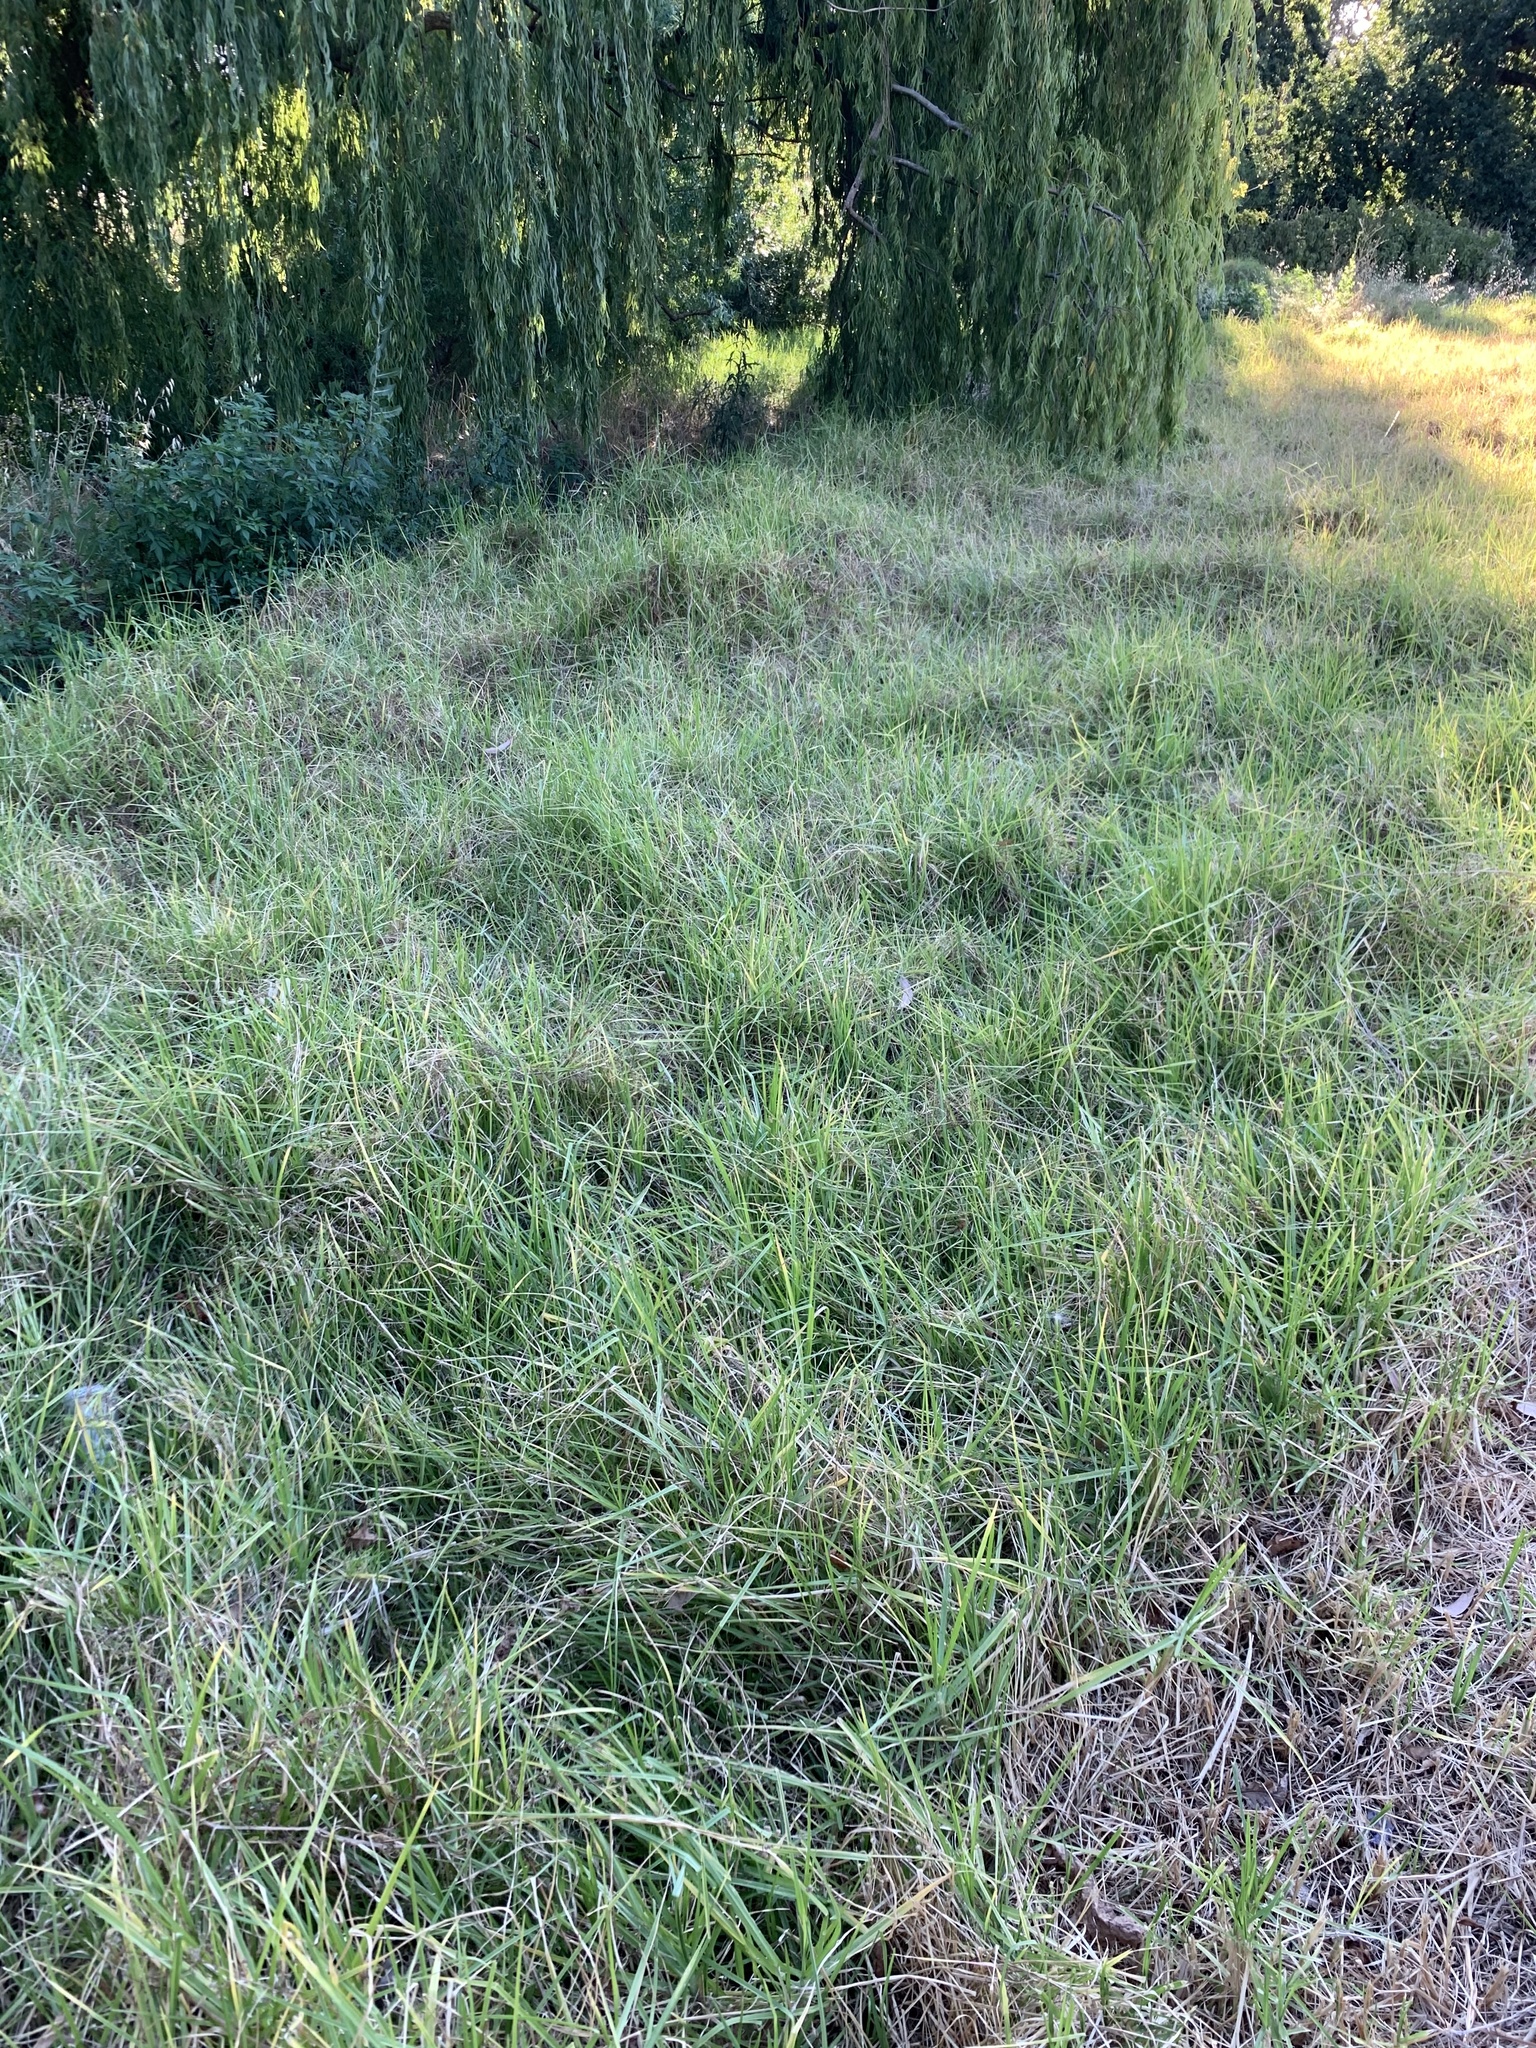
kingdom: Plantae
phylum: Tracheophyta
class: Liliopsida
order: Poales
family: Poaceae
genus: Cenchrus
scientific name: Cenchrus clandestinus
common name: Kikuyugrass
